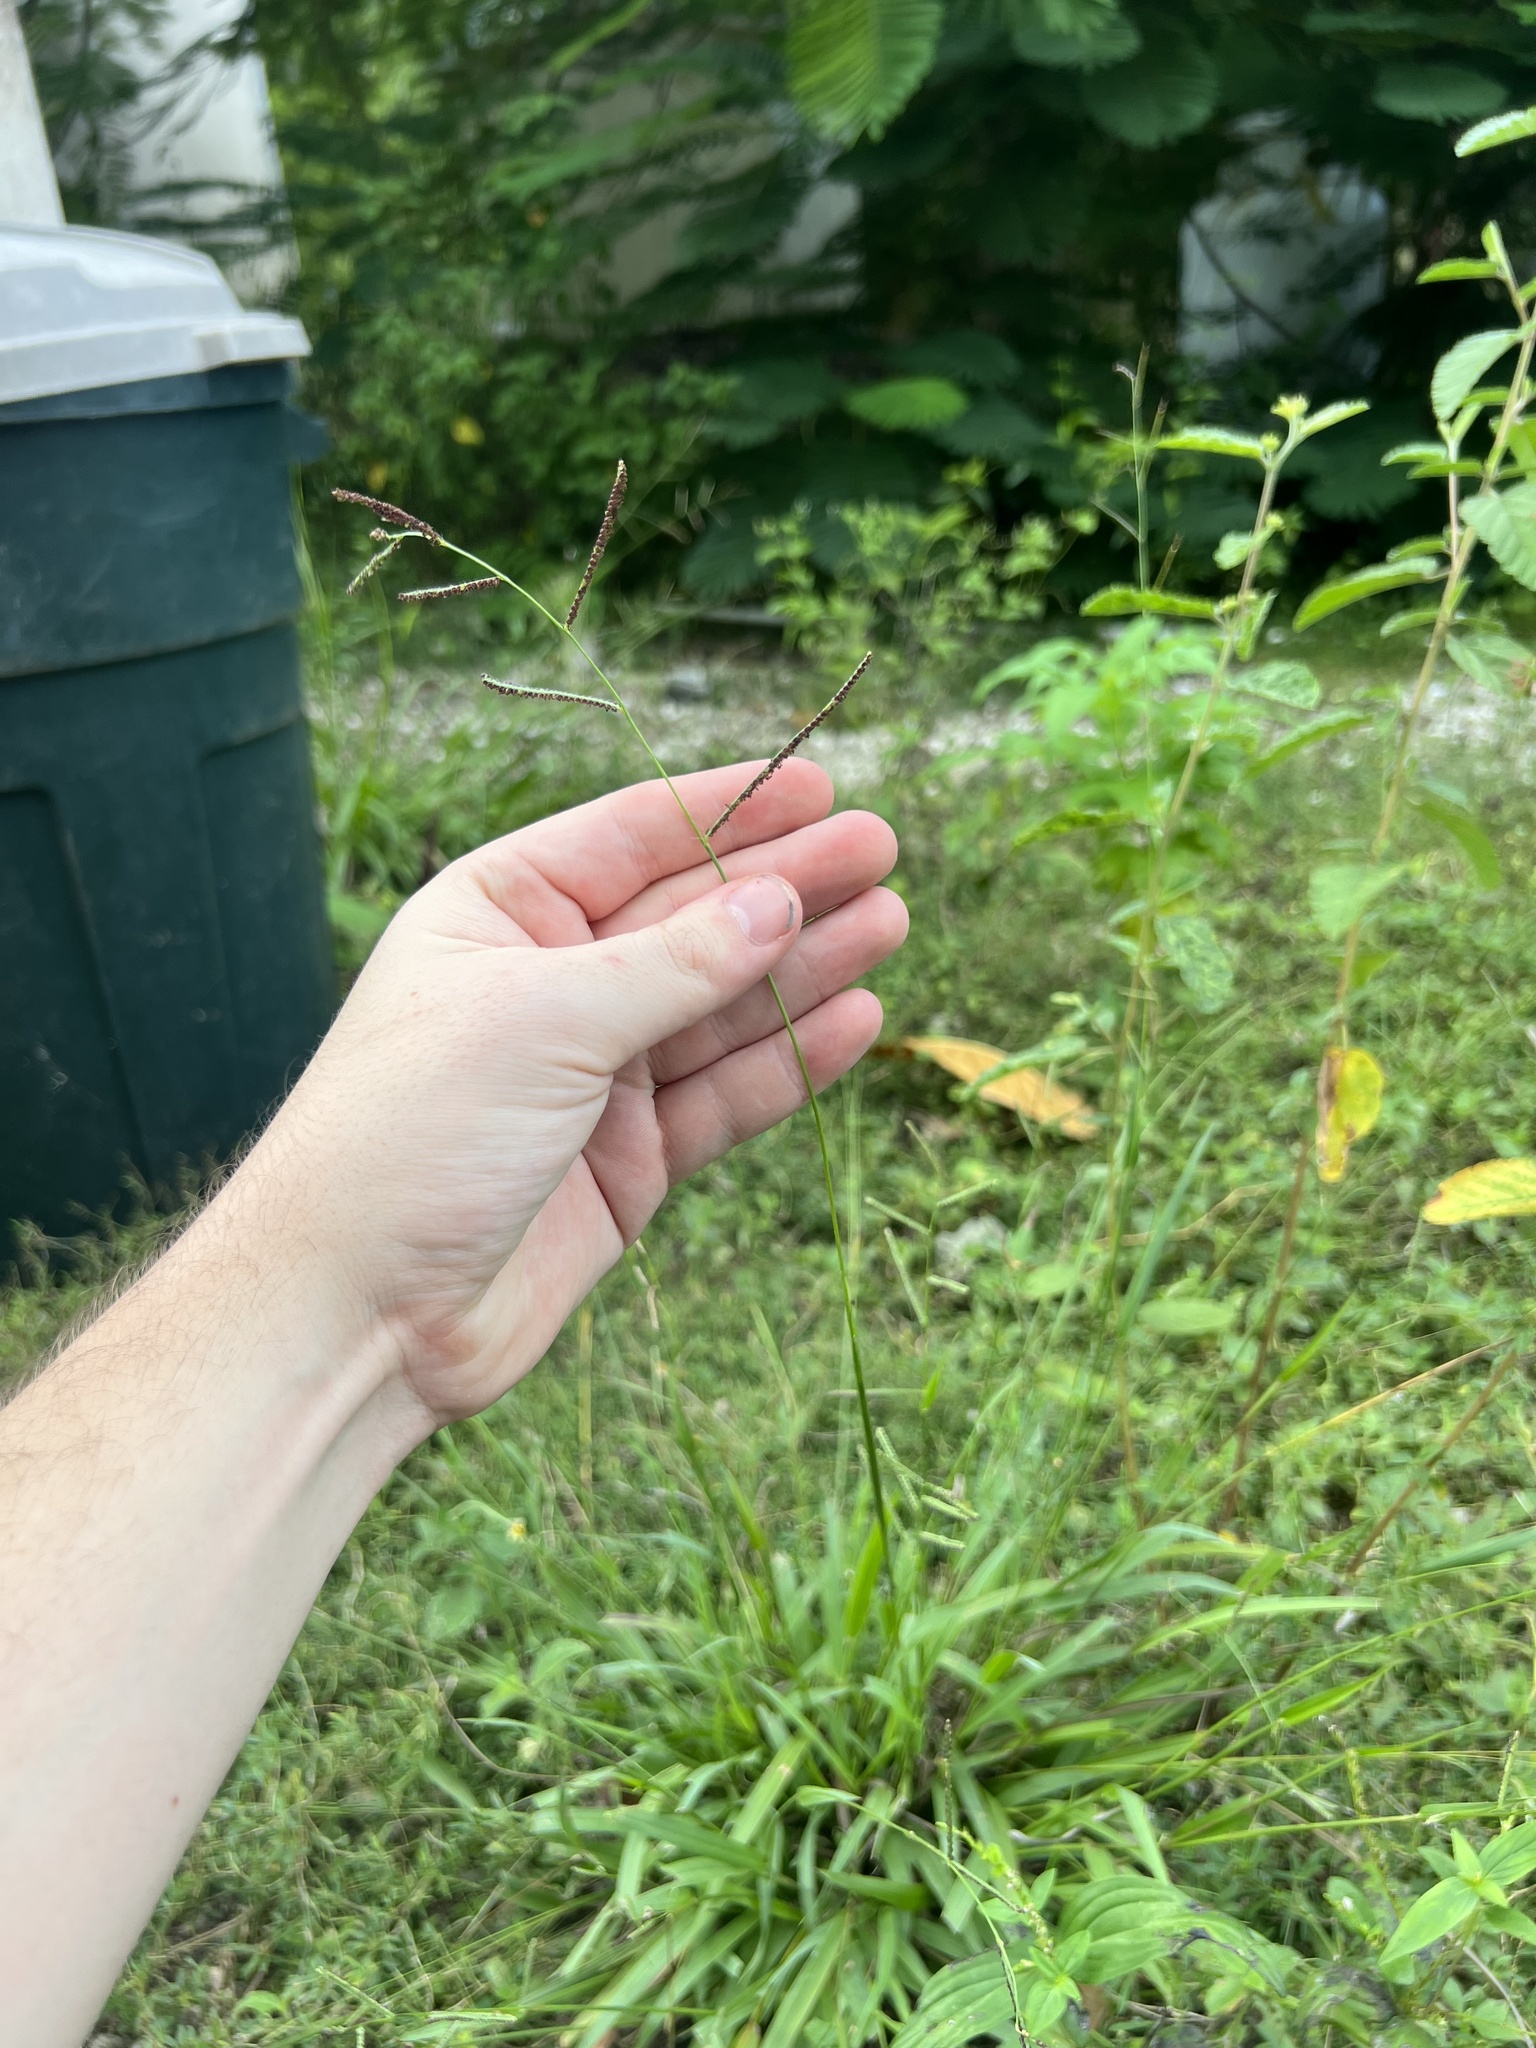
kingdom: Plantae
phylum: Tracheophyta
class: Liliopsida
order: Poales
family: Poaceae
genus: Paspalum
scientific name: Paspalum blodgettii
